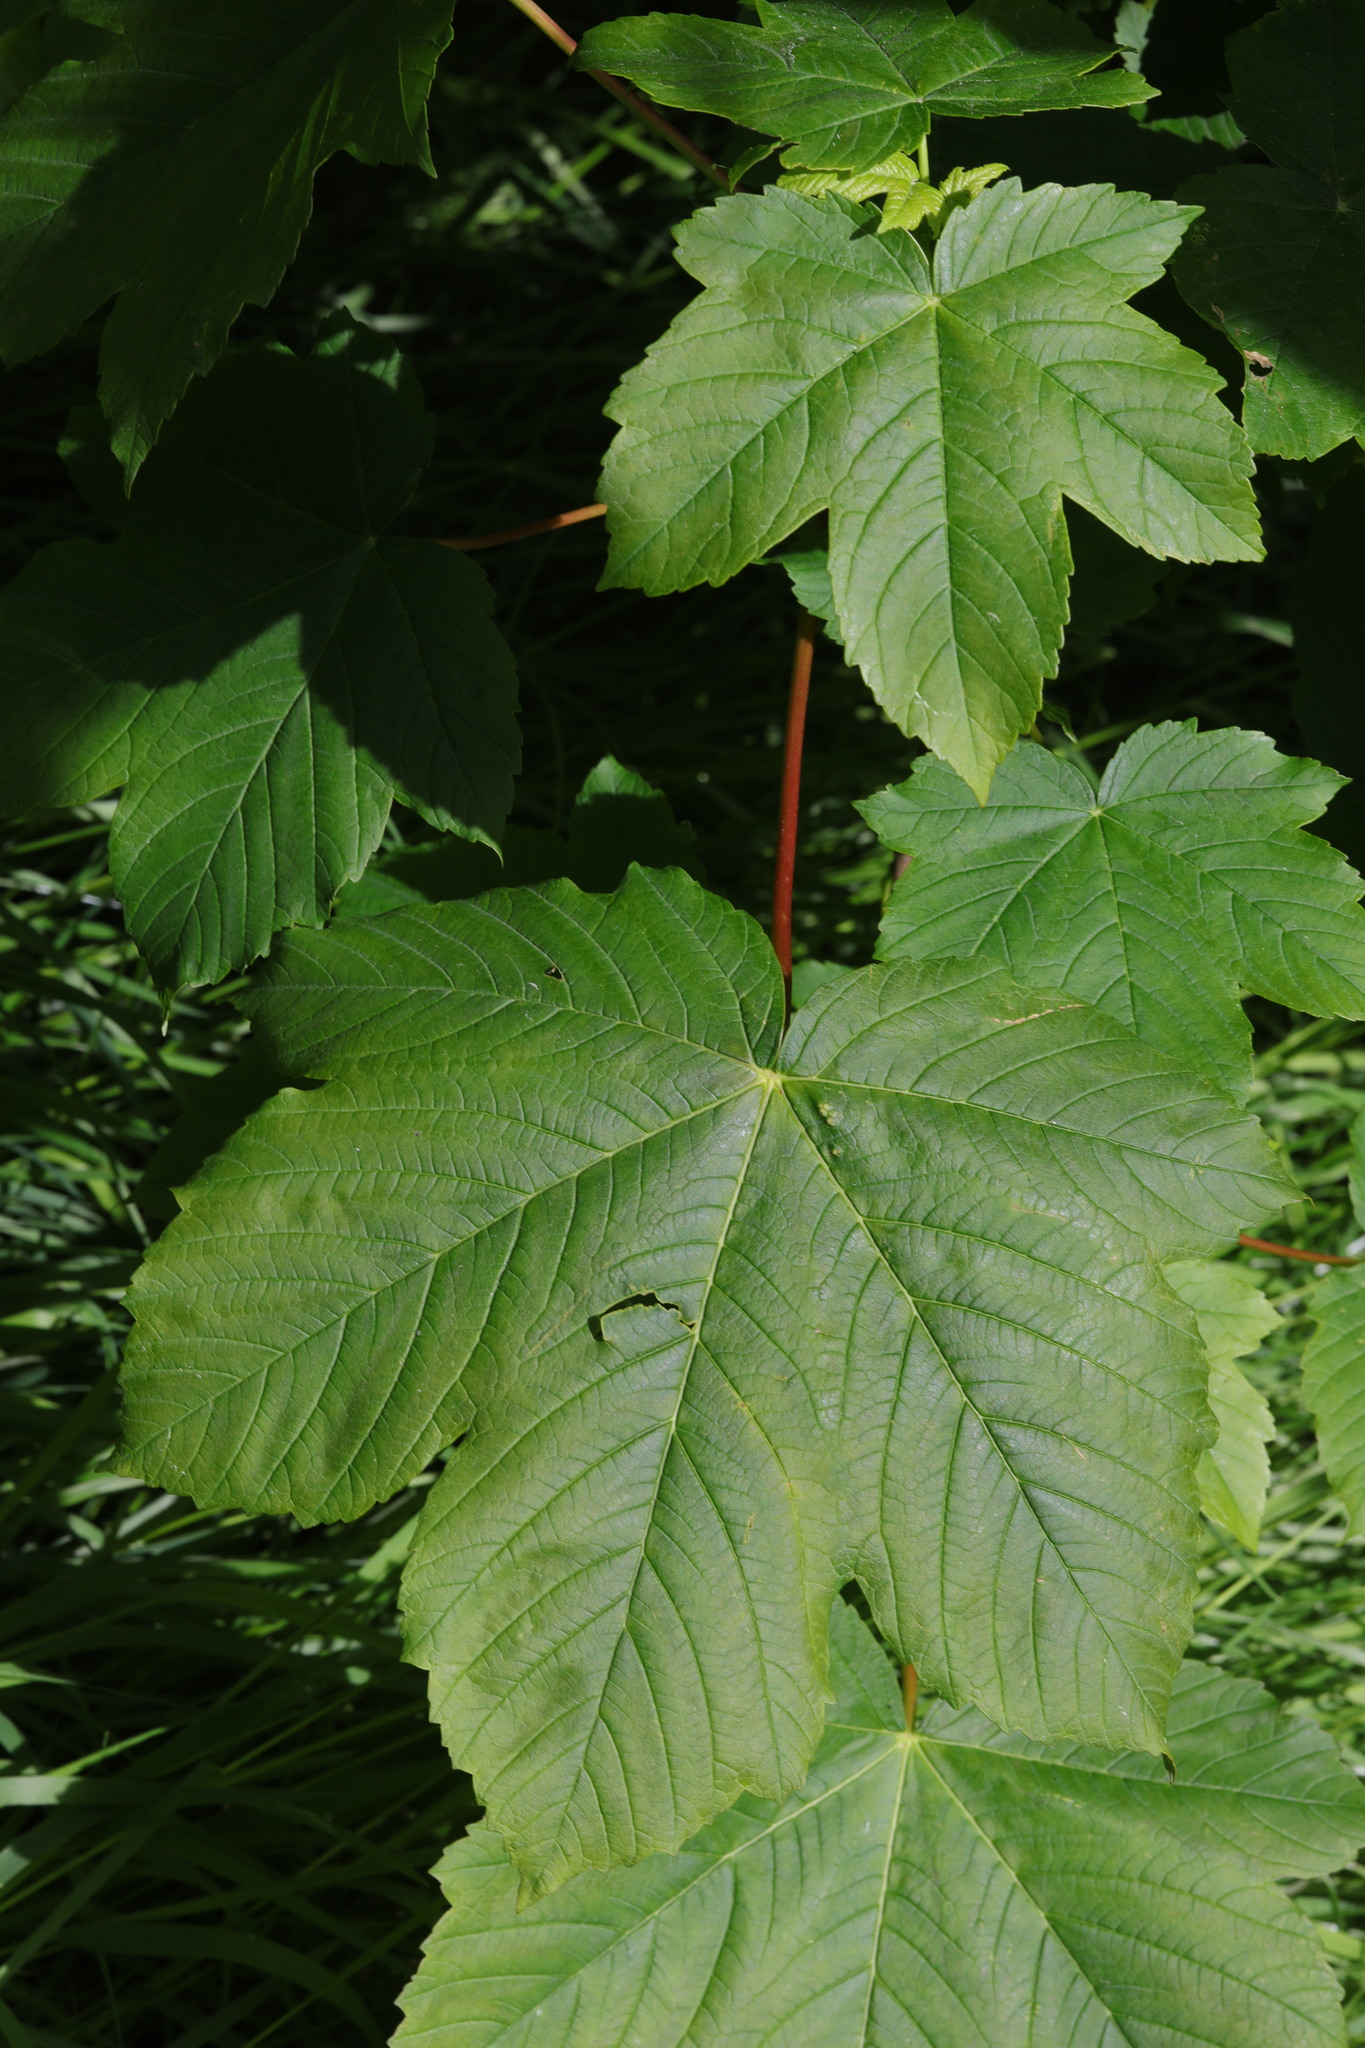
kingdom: Plantae
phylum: Tracheophyta
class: Magnoliopsida
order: Sapindales
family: Sapindaceae
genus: Acer
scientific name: Acer pseudoplatanus
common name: Sycamore
